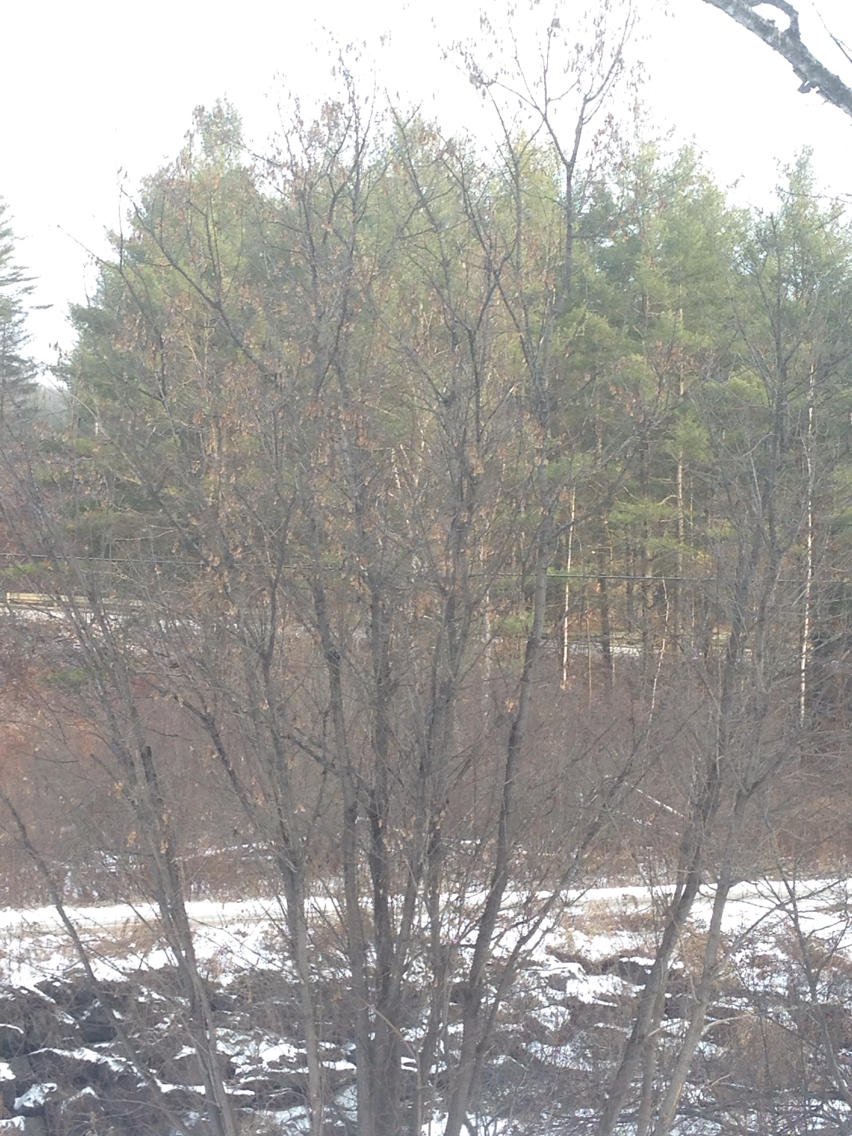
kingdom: Plantae
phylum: Tracheophyta
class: Magnoliopsida
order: Sapindales
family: Sapindaceae
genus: Acer
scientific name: Acer negundo
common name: Ashleaf maple
